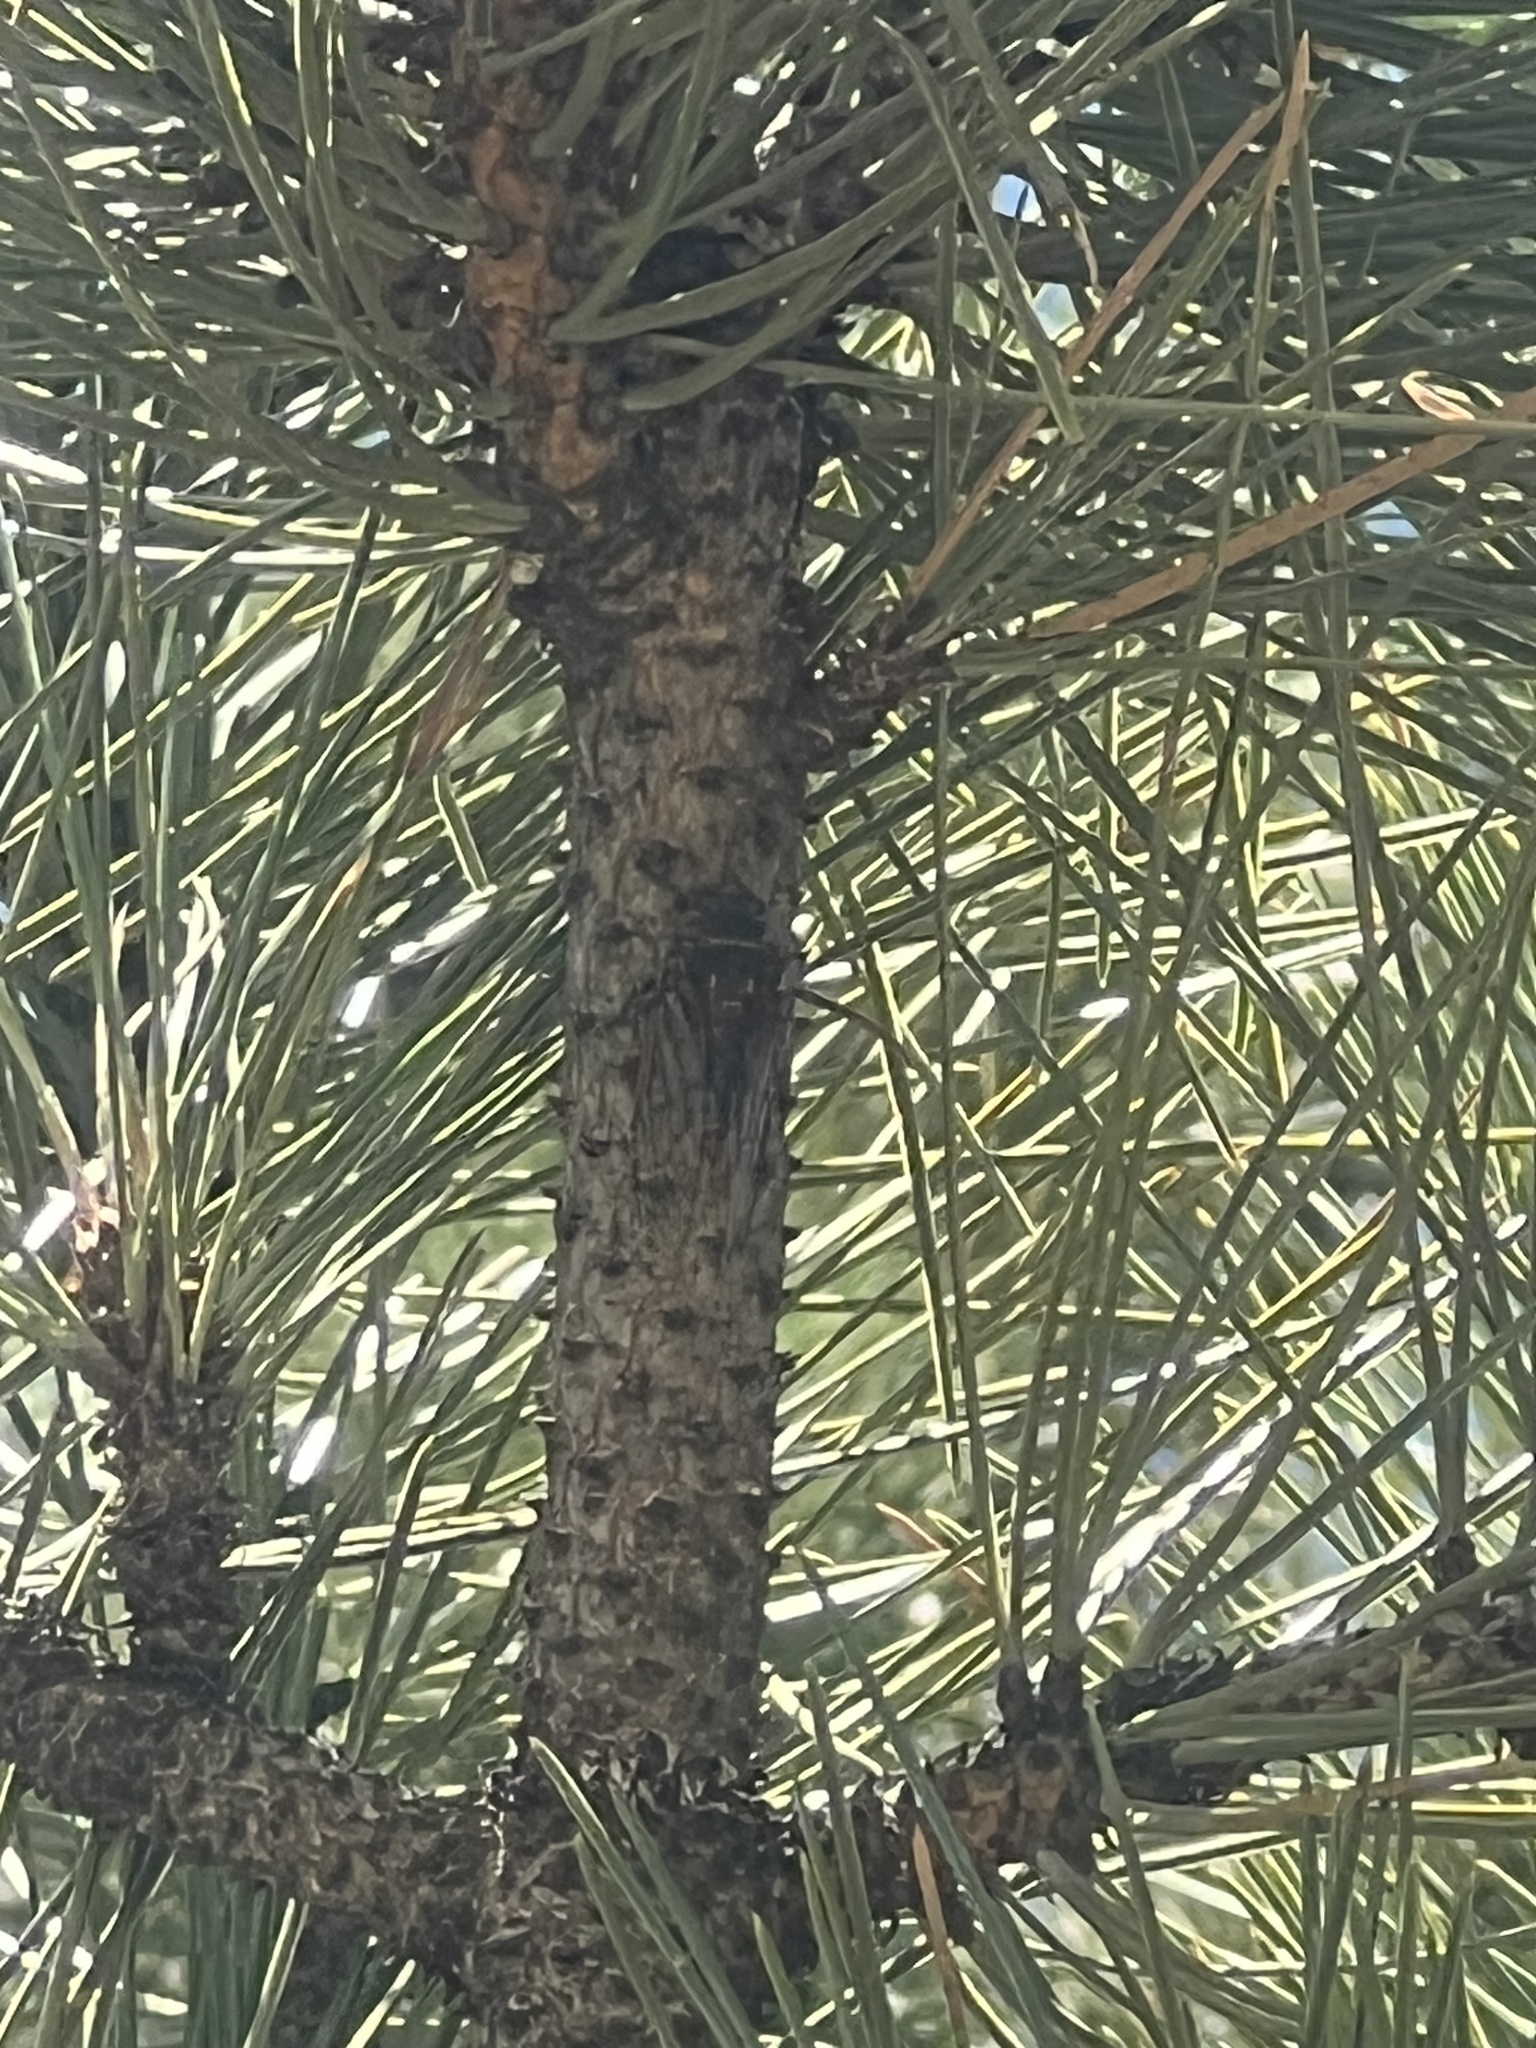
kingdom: Animalia
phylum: Arthropoda
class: Insecta
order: Hemiptera
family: Cicadidae
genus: Okanagana
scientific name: Okanagana bella
